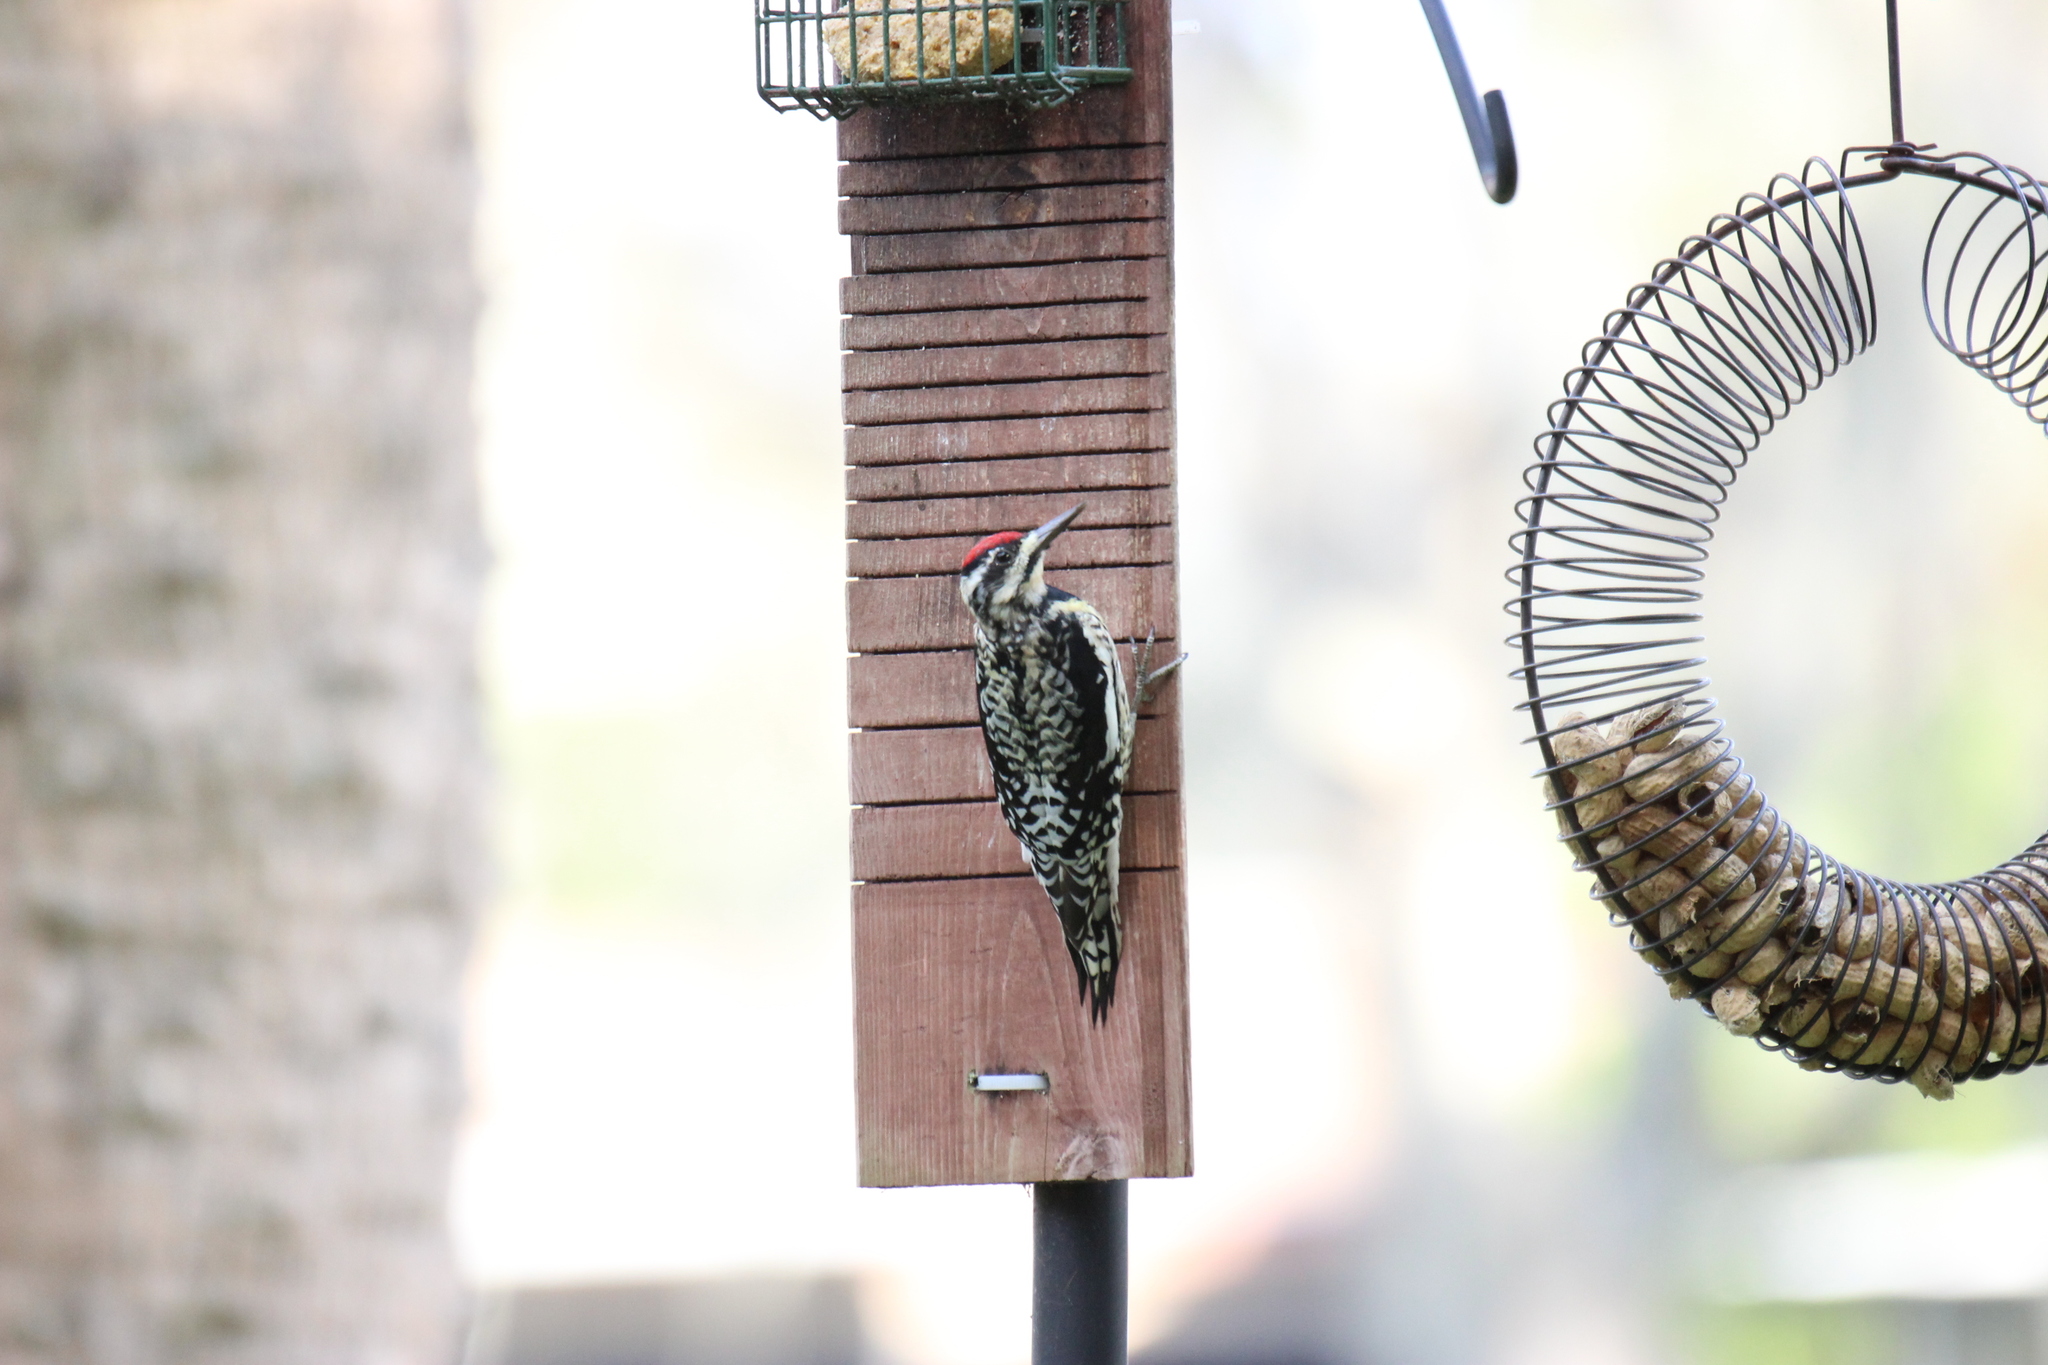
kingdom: Animalia
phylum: Chordata
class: Aves
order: Piciformes
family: Picidae
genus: Sphyrapicus
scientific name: Sphyrapicus varius
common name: Yellow-bellied sapsucker
